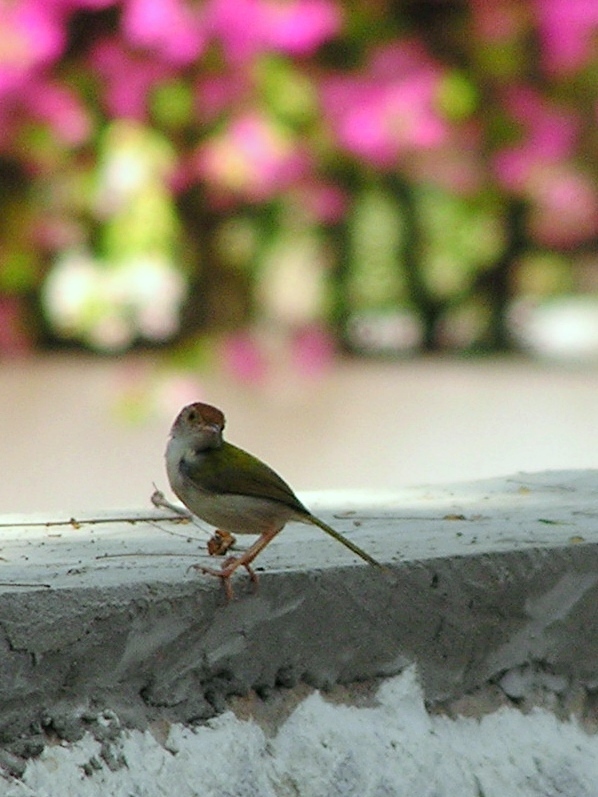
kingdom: Animalia
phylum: Chordata
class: Aves
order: Passeriformes
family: Cisticolidae
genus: Orthotomus
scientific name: Orthotomus sutorius
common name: Common tailorbird
